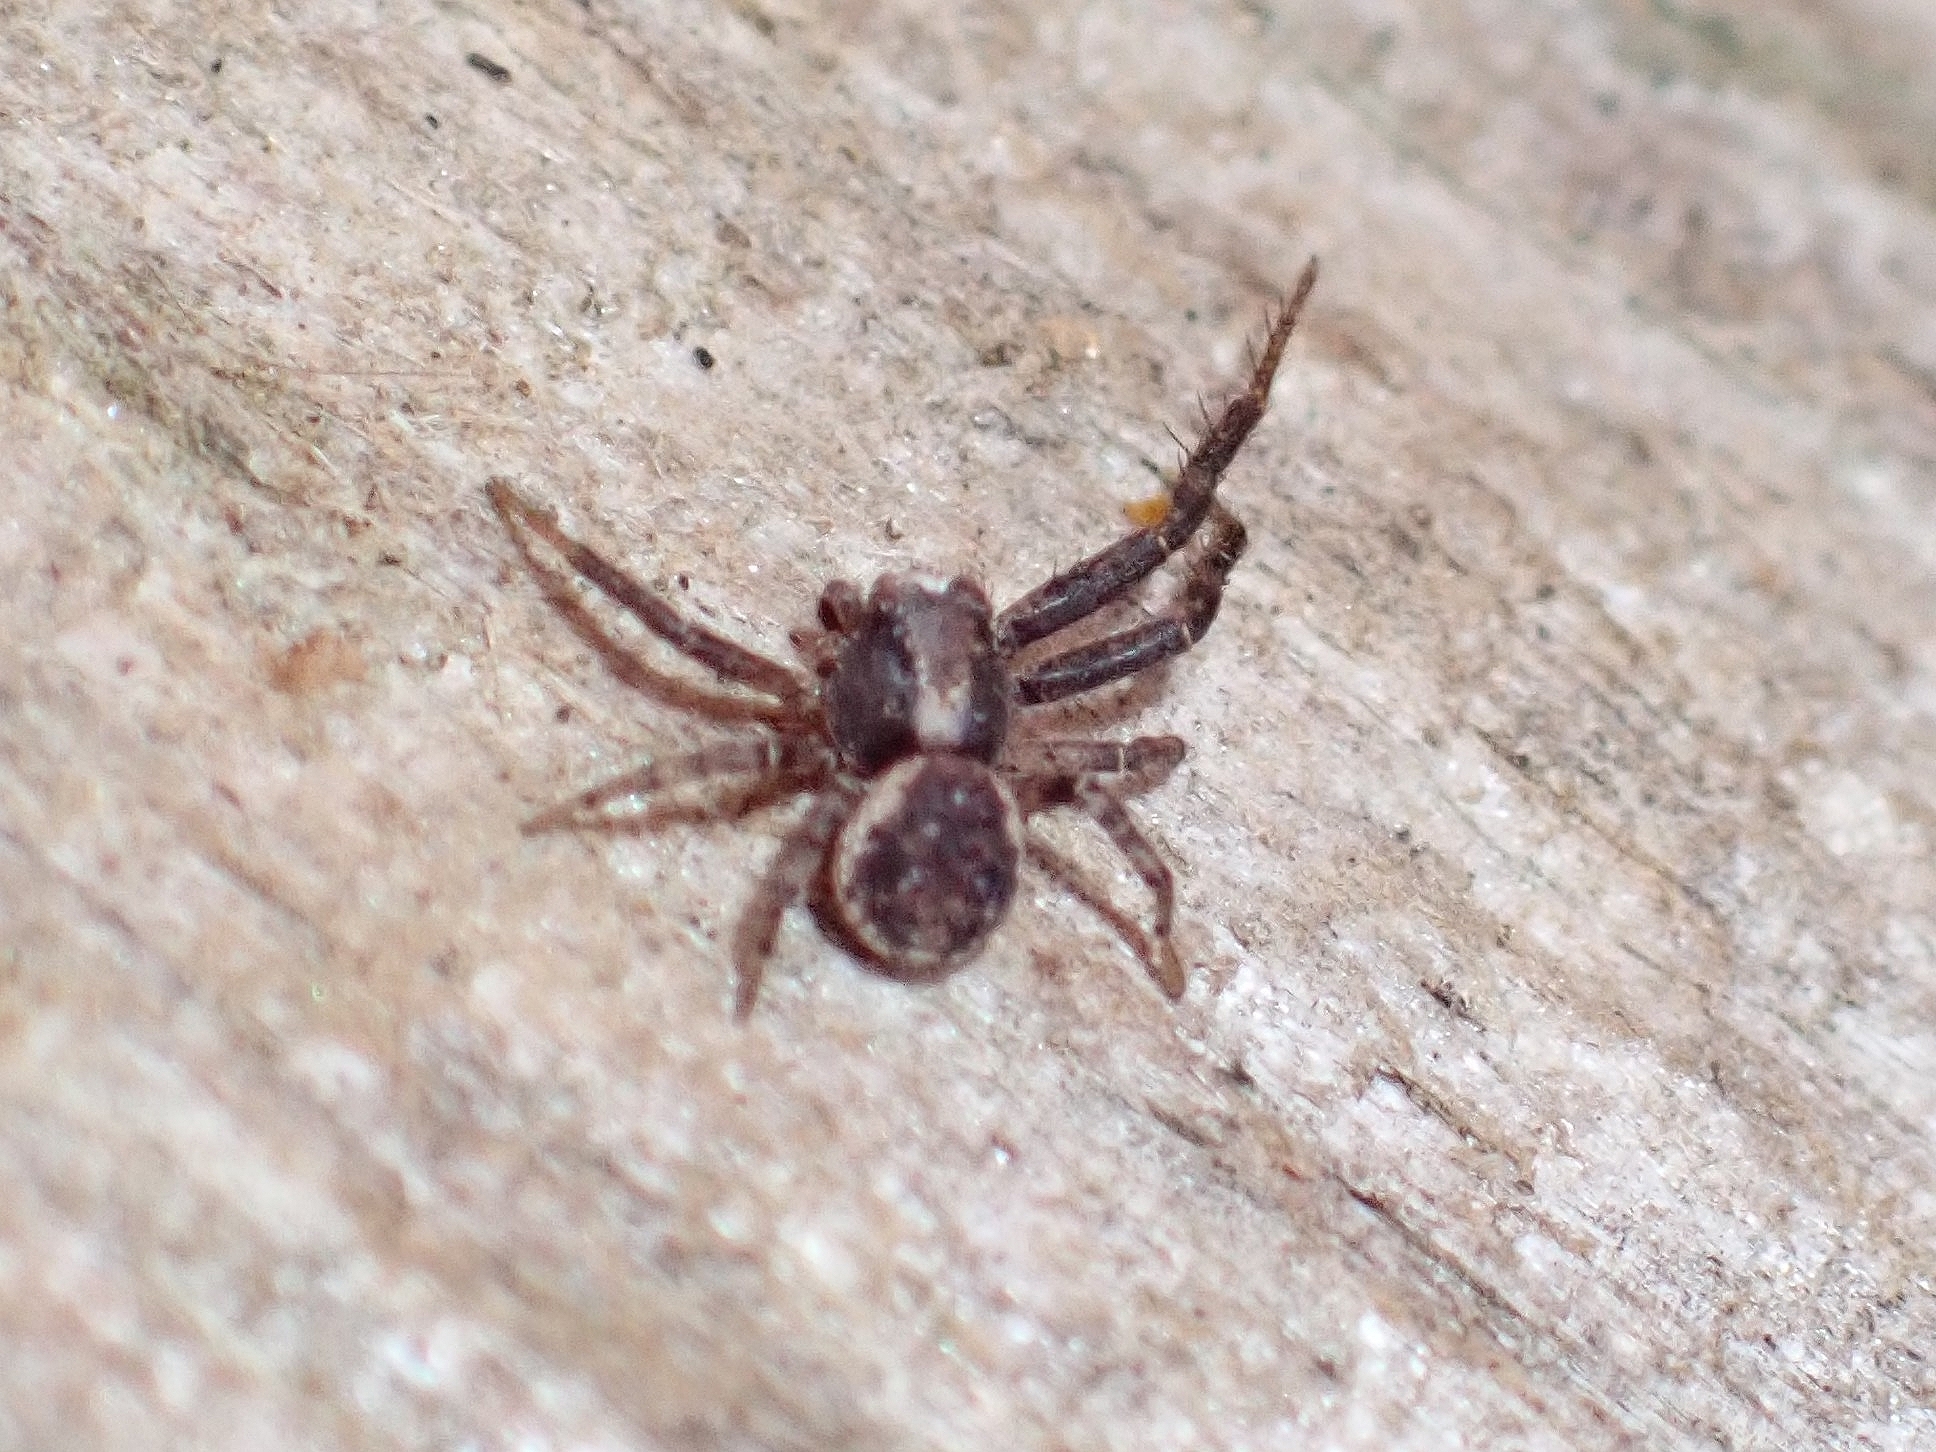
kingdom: Animalia
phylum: Arthropoda
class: Arachnida
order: Araneae
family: Thomisidae
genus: Xysticus
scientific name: Xysticus verneaui
